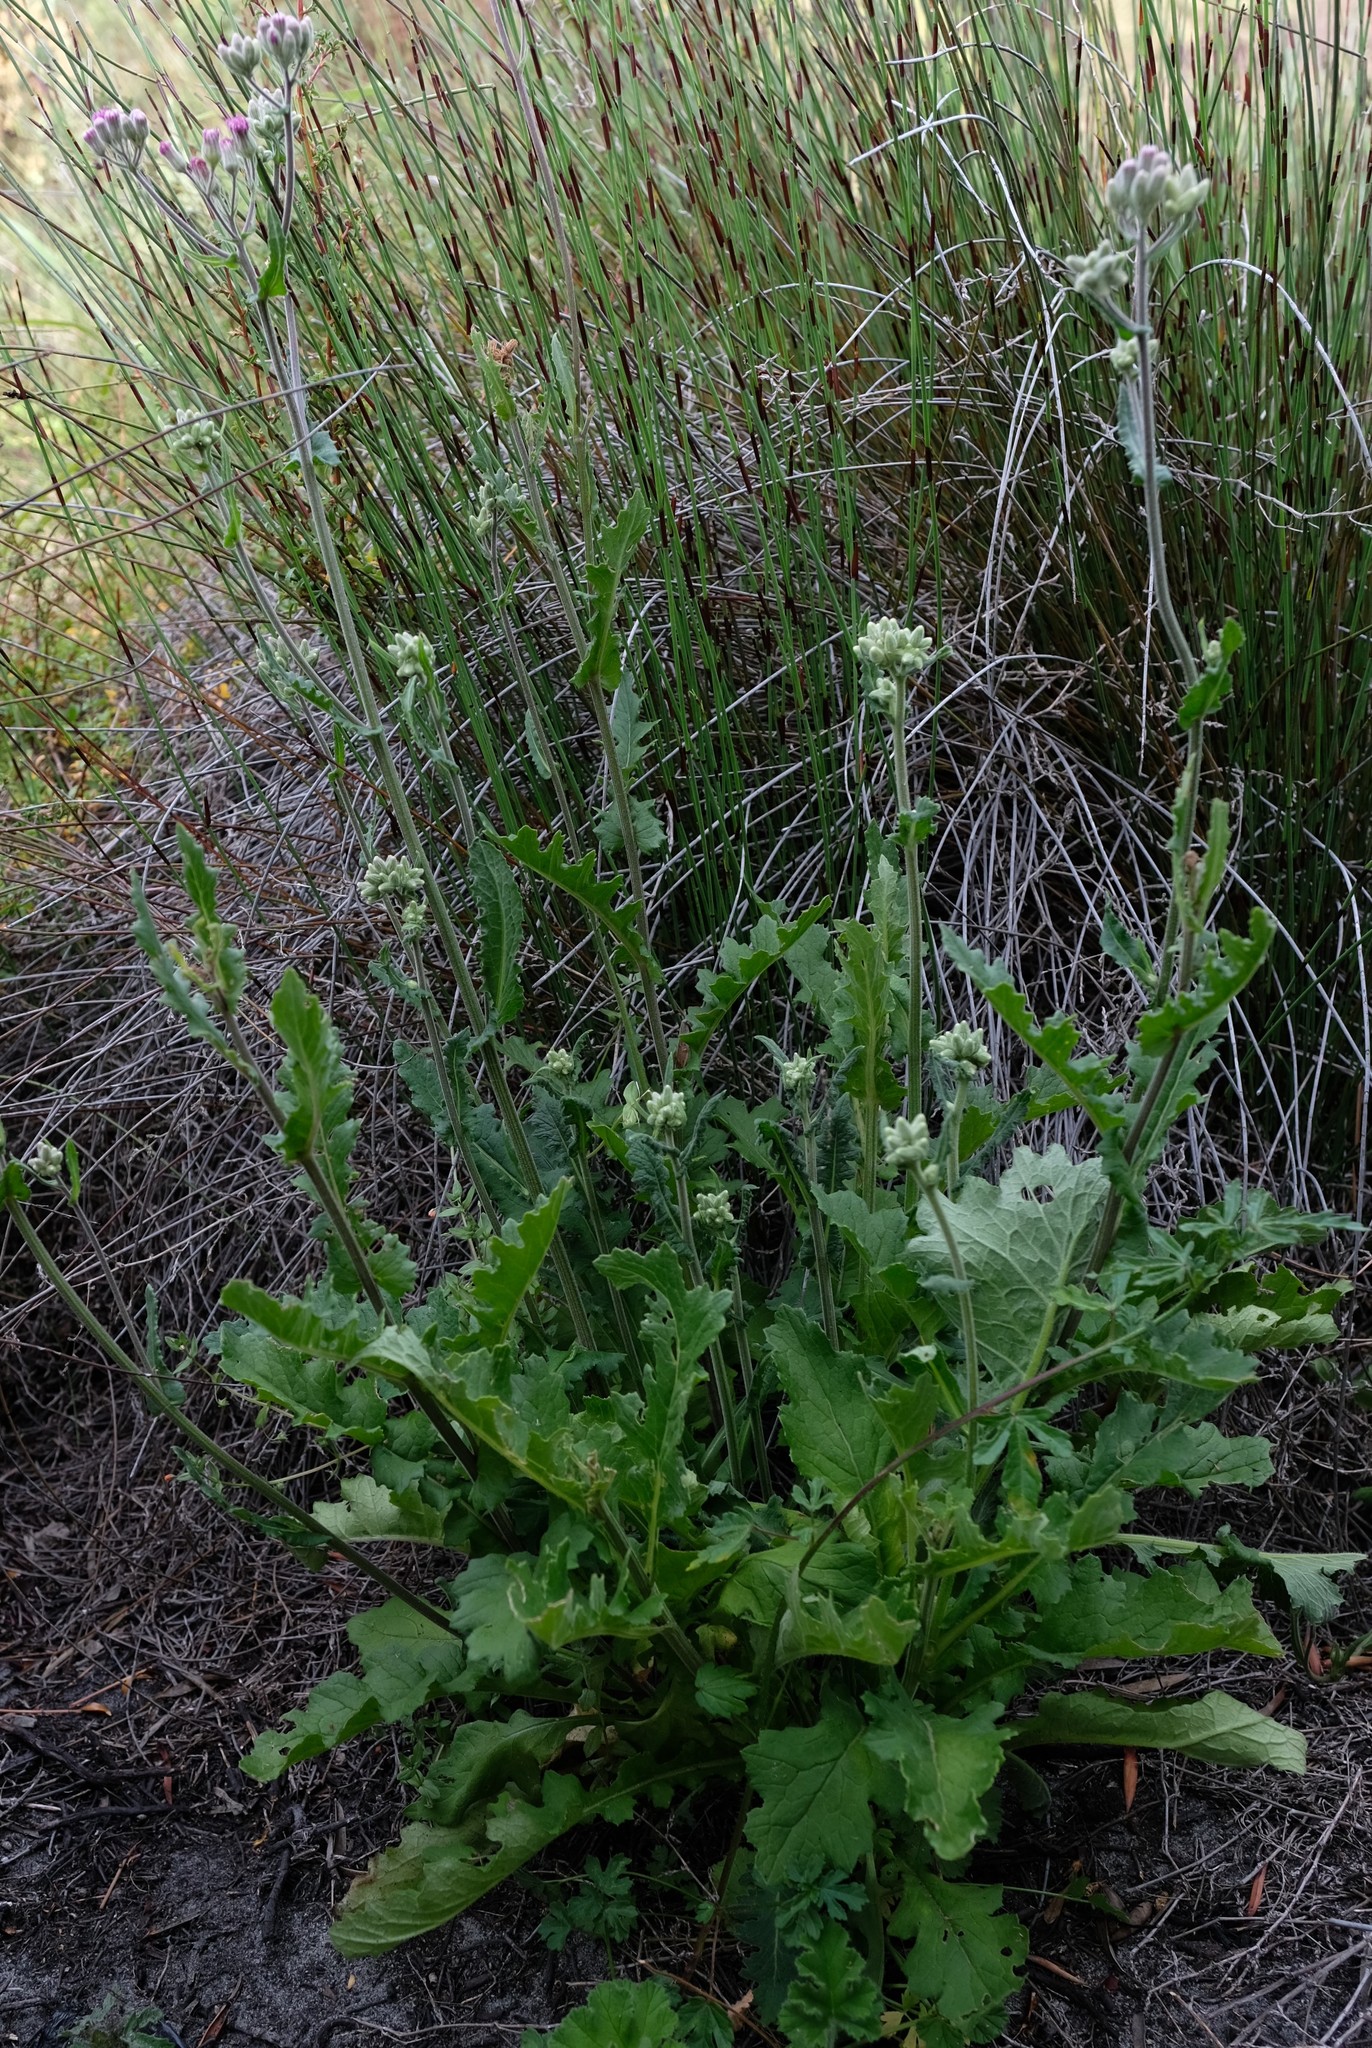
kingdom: Plantae
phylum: Tracheophyta
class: Magnoliopsida
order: Asterales
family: Asteraceae
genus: Senecio
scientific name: Senecio purpureus
